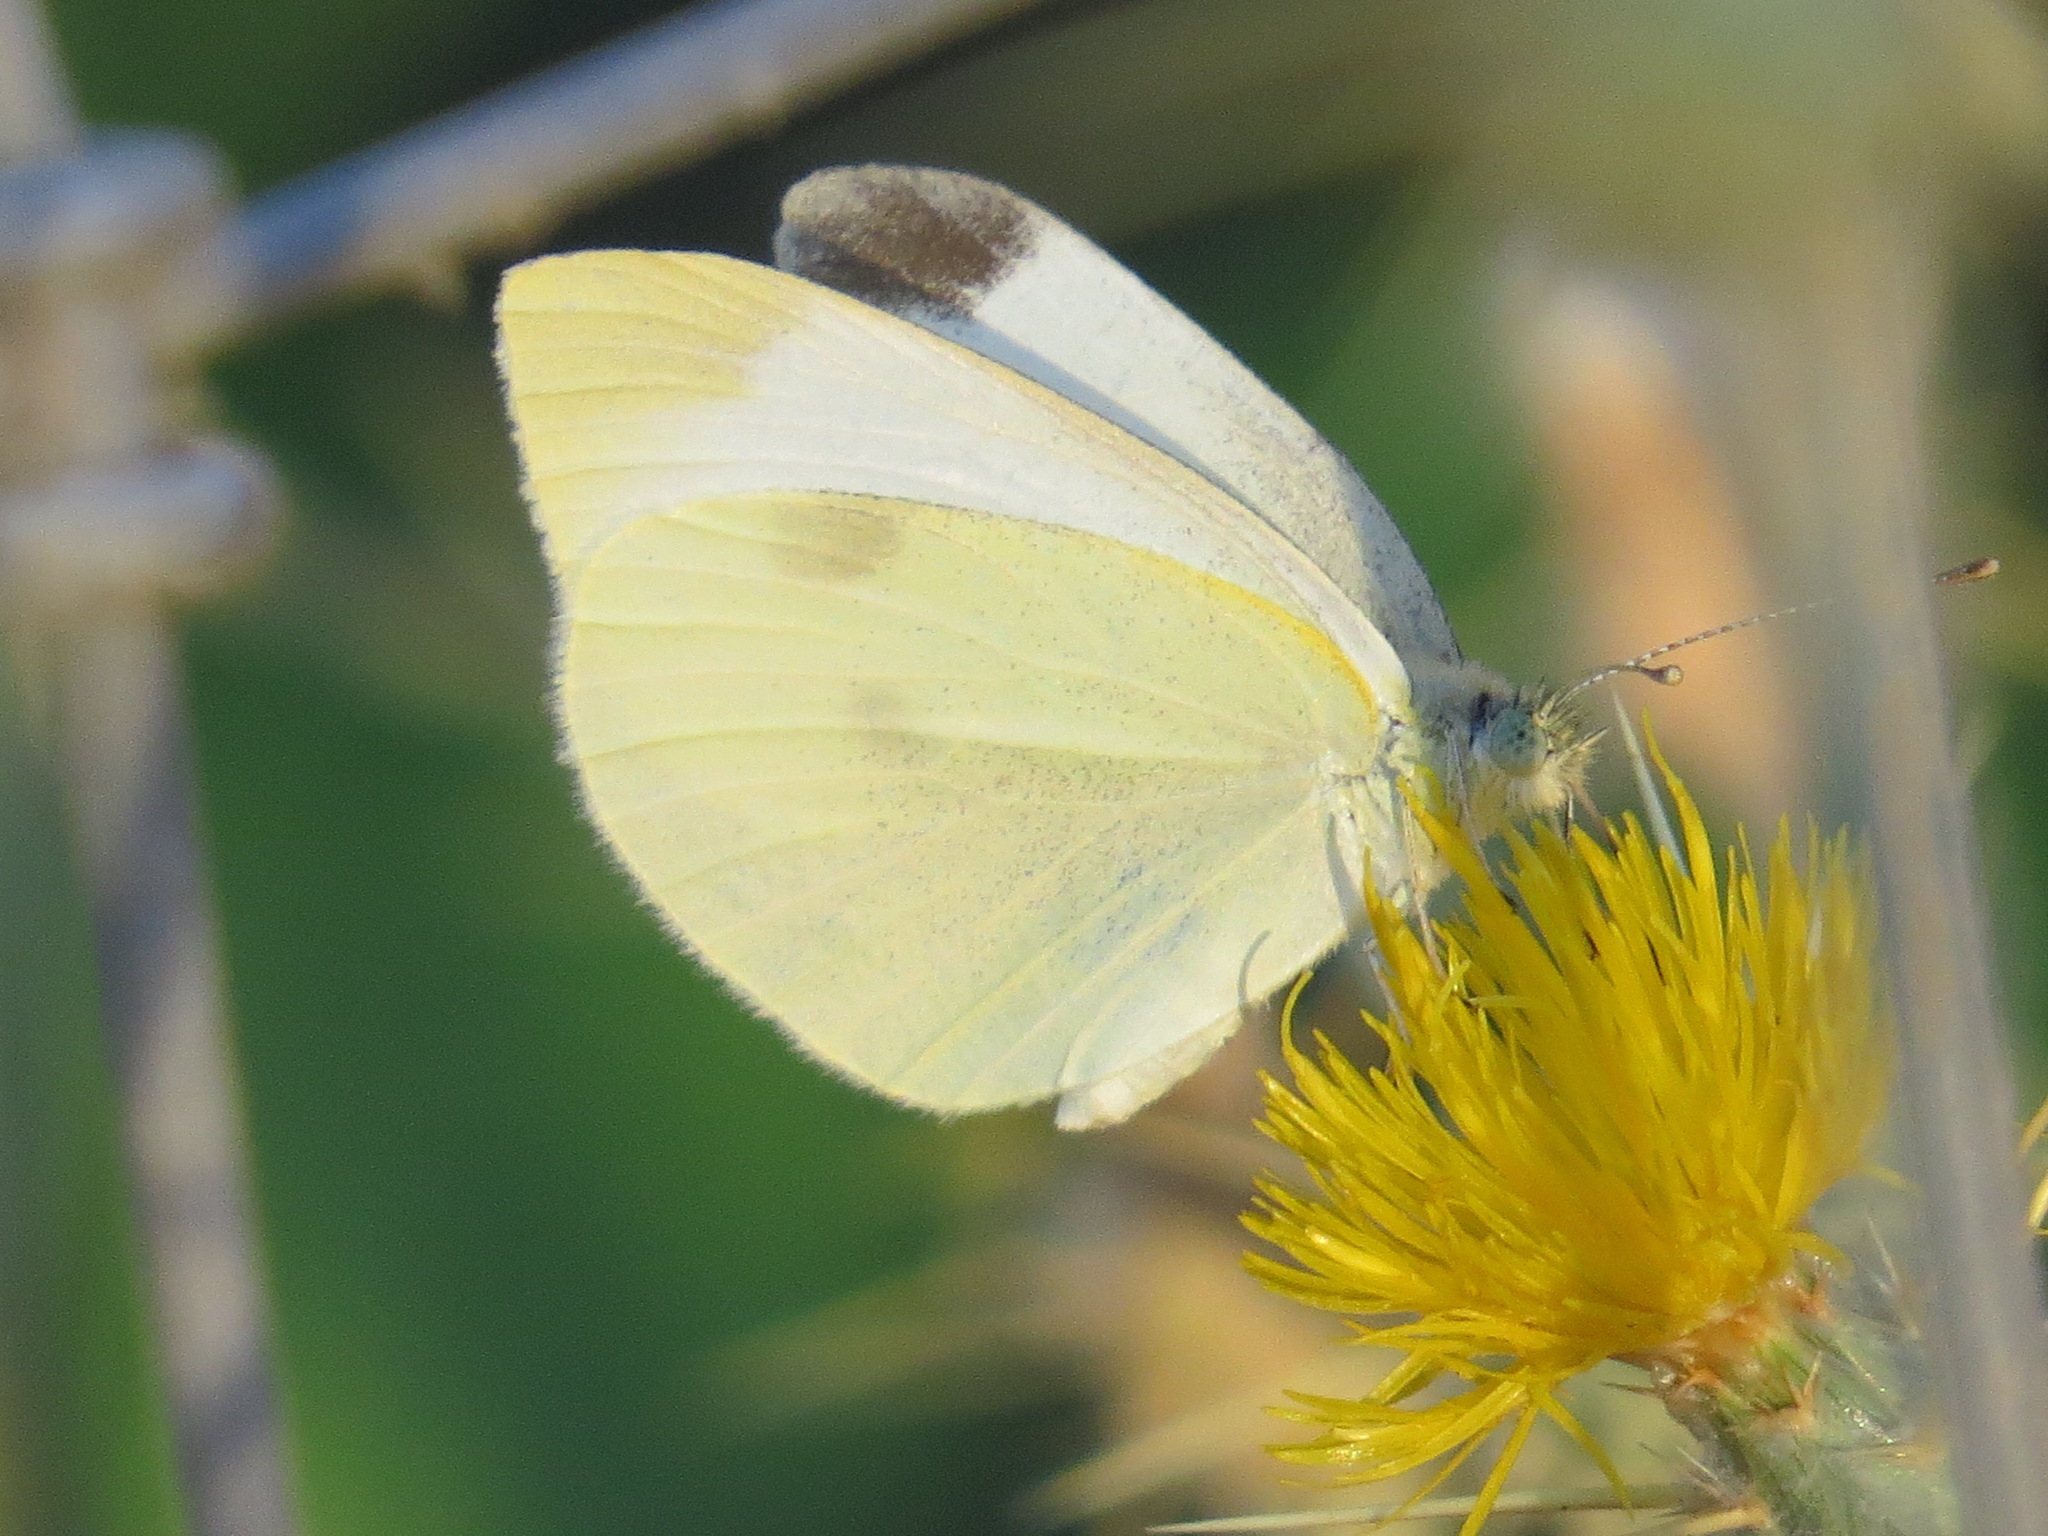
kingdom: Animalia
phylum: Arthropoda
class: Insecta
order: Lepidoptera
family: Pieridae
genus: Pieris
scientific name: Pieris rapae
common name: Small white
